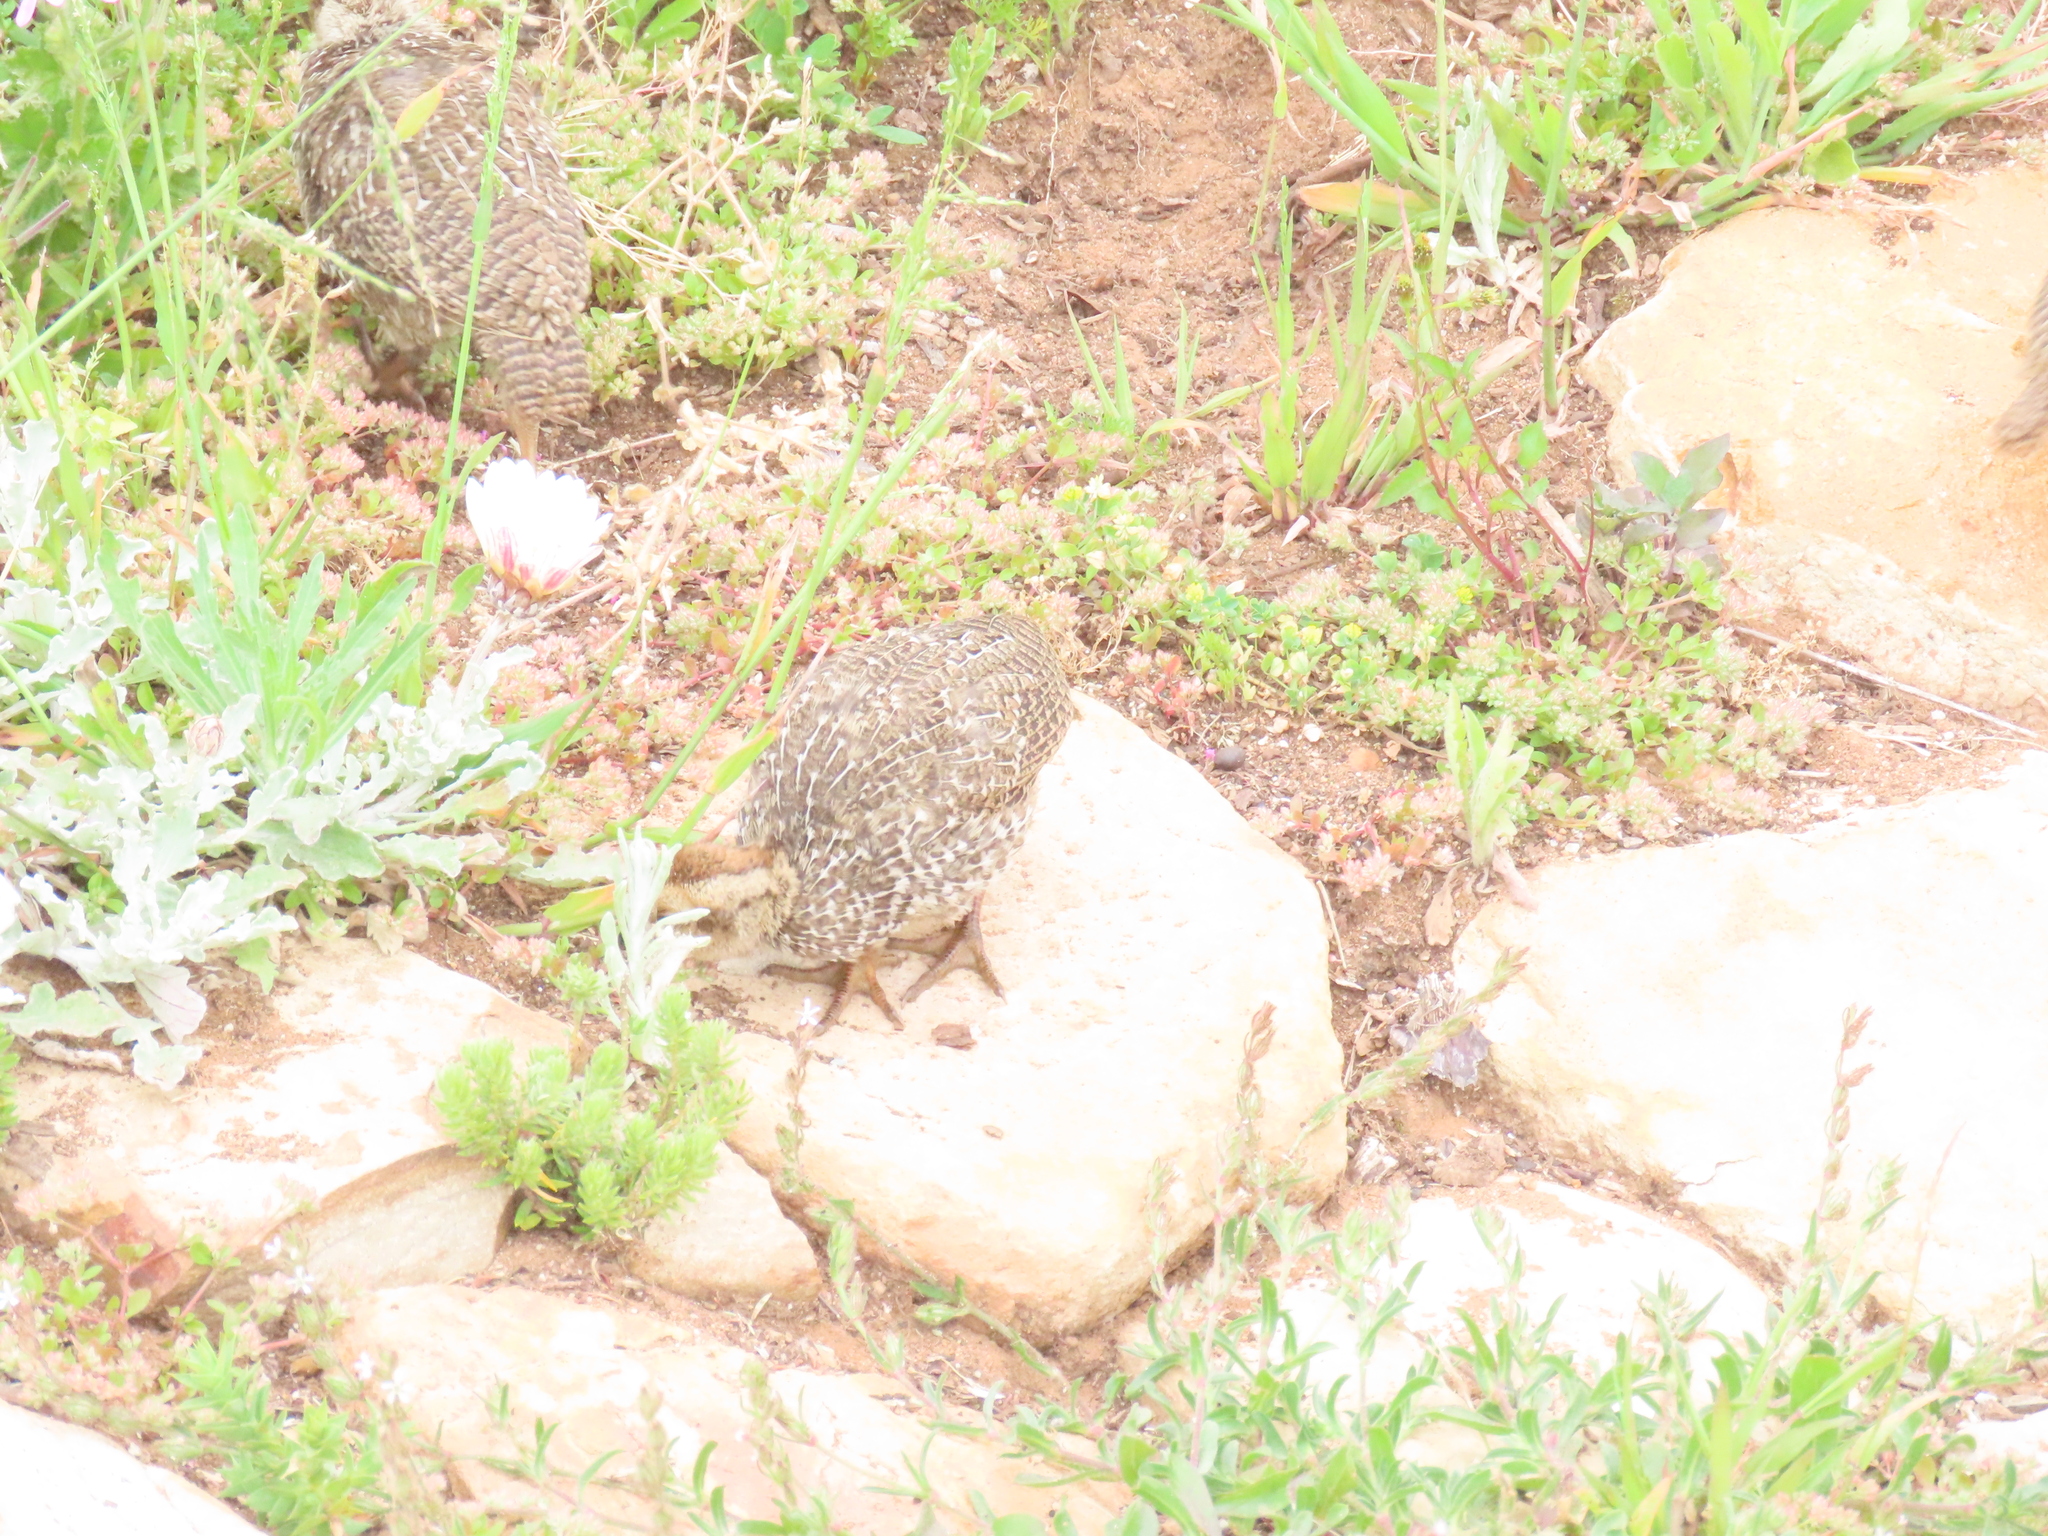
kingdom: Animalia
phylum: Chordata
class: Aves
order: Galliformes
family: Phasianidae
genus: Pternistis
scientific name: Pternistis capensis
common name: Cape spurfowl
